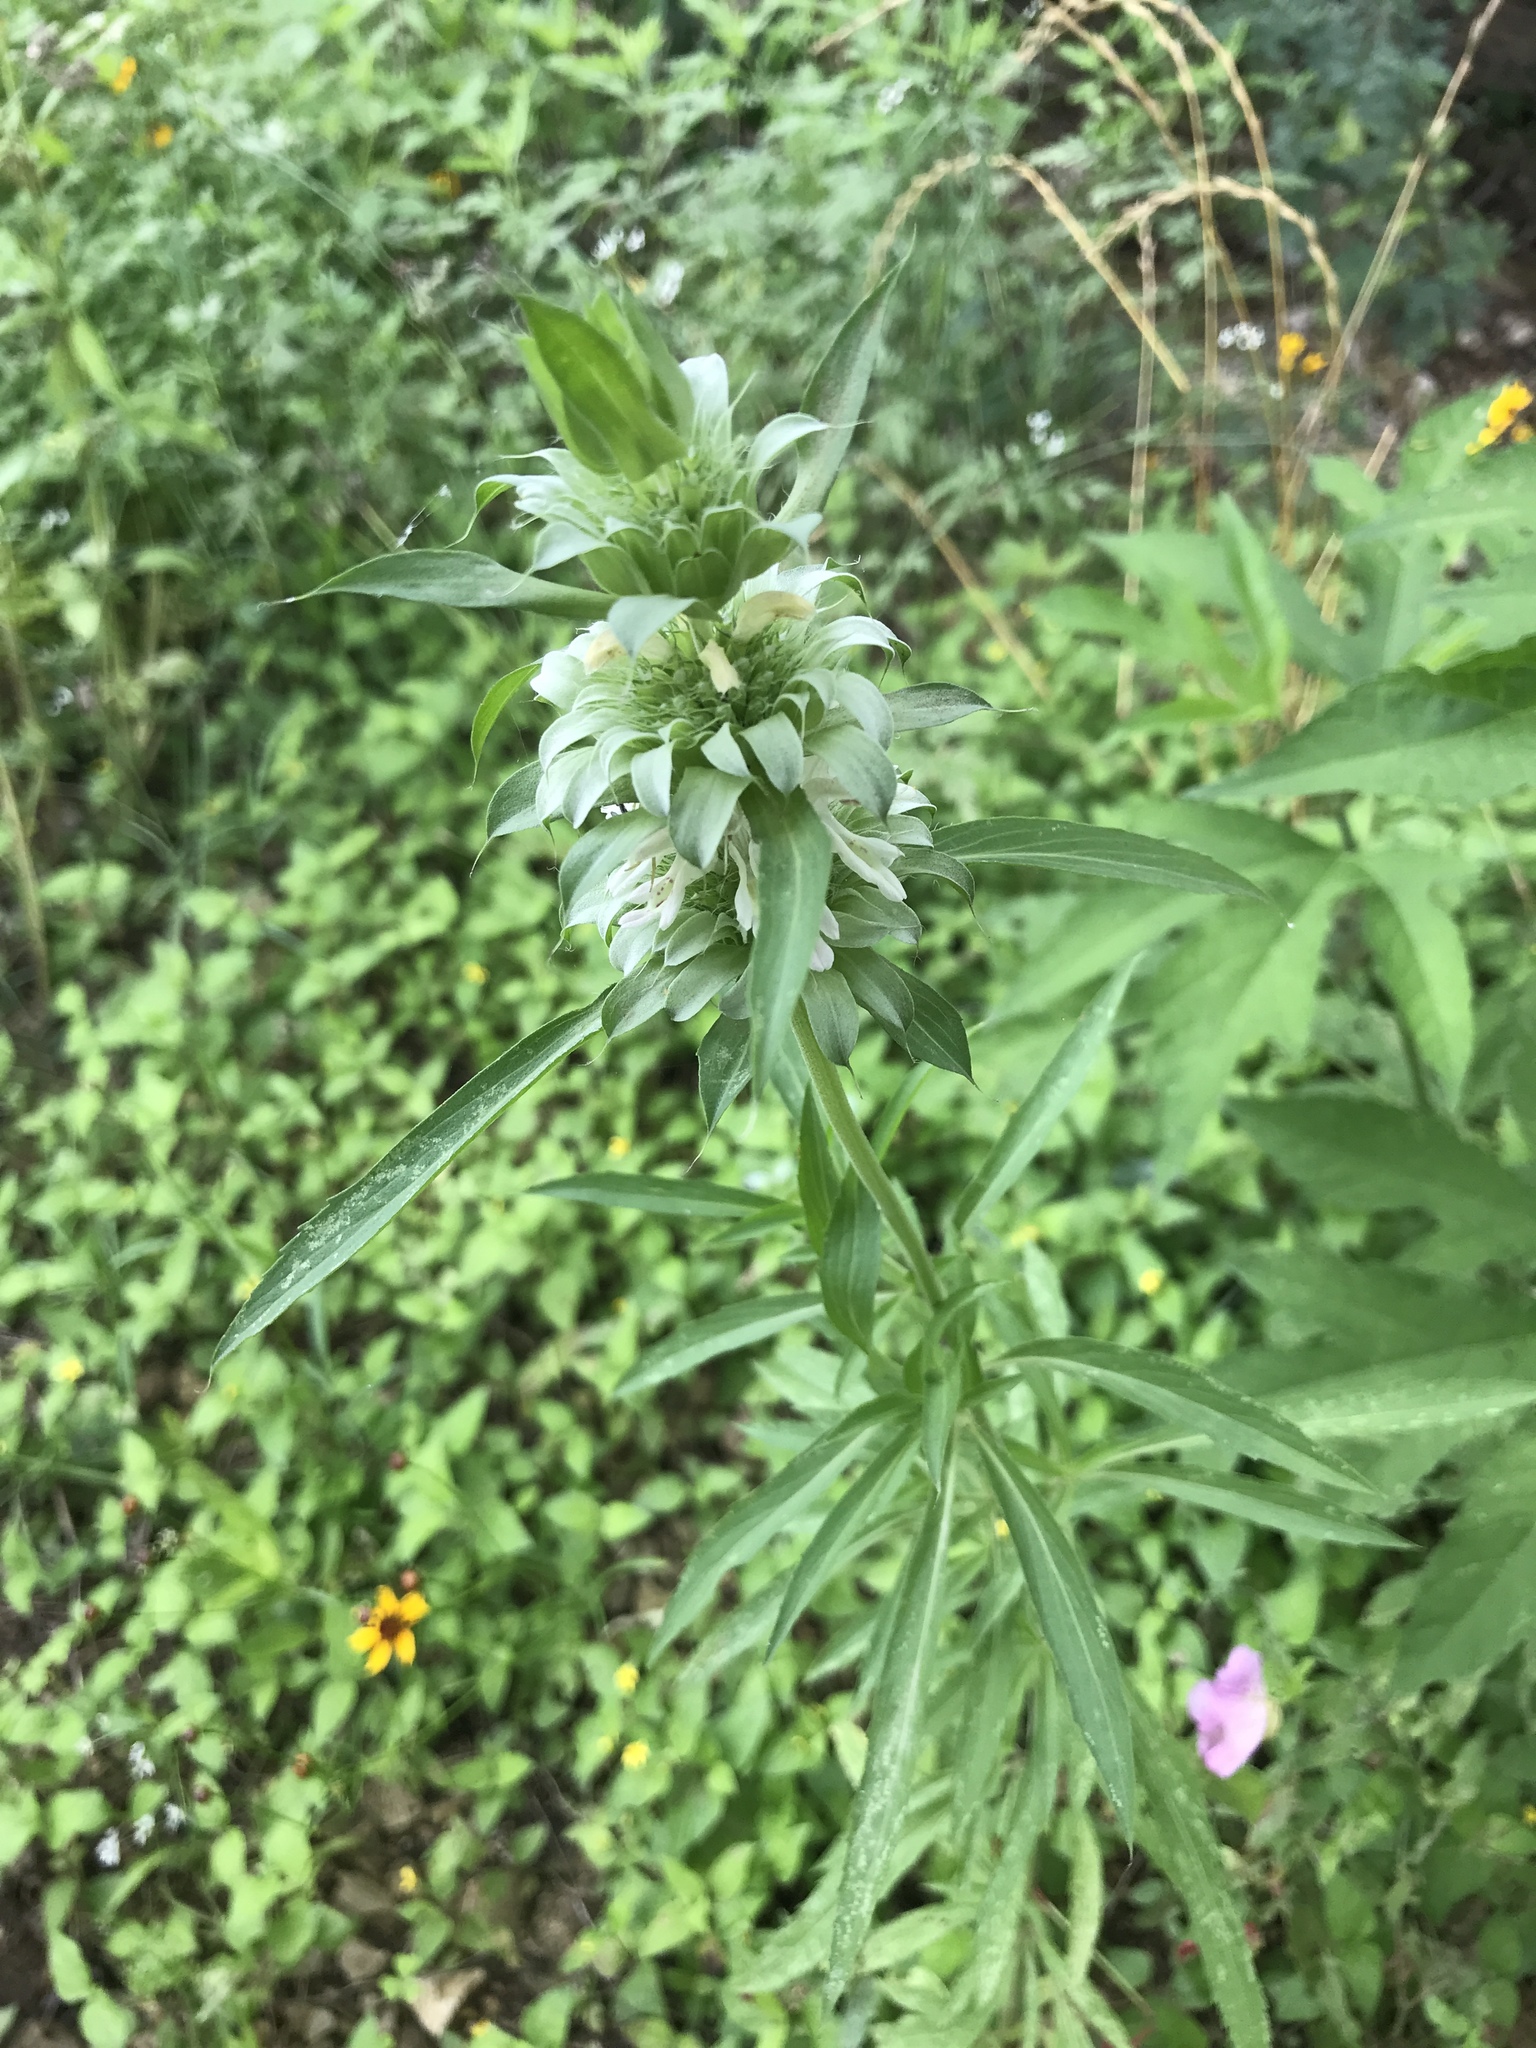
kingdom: Plantae
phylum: Tracheophyta
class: Magnoliopsida
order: Lamiales
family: Lamiaceae
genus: Monarda
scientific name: Monarda citriodora
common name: Lemon beebalm
